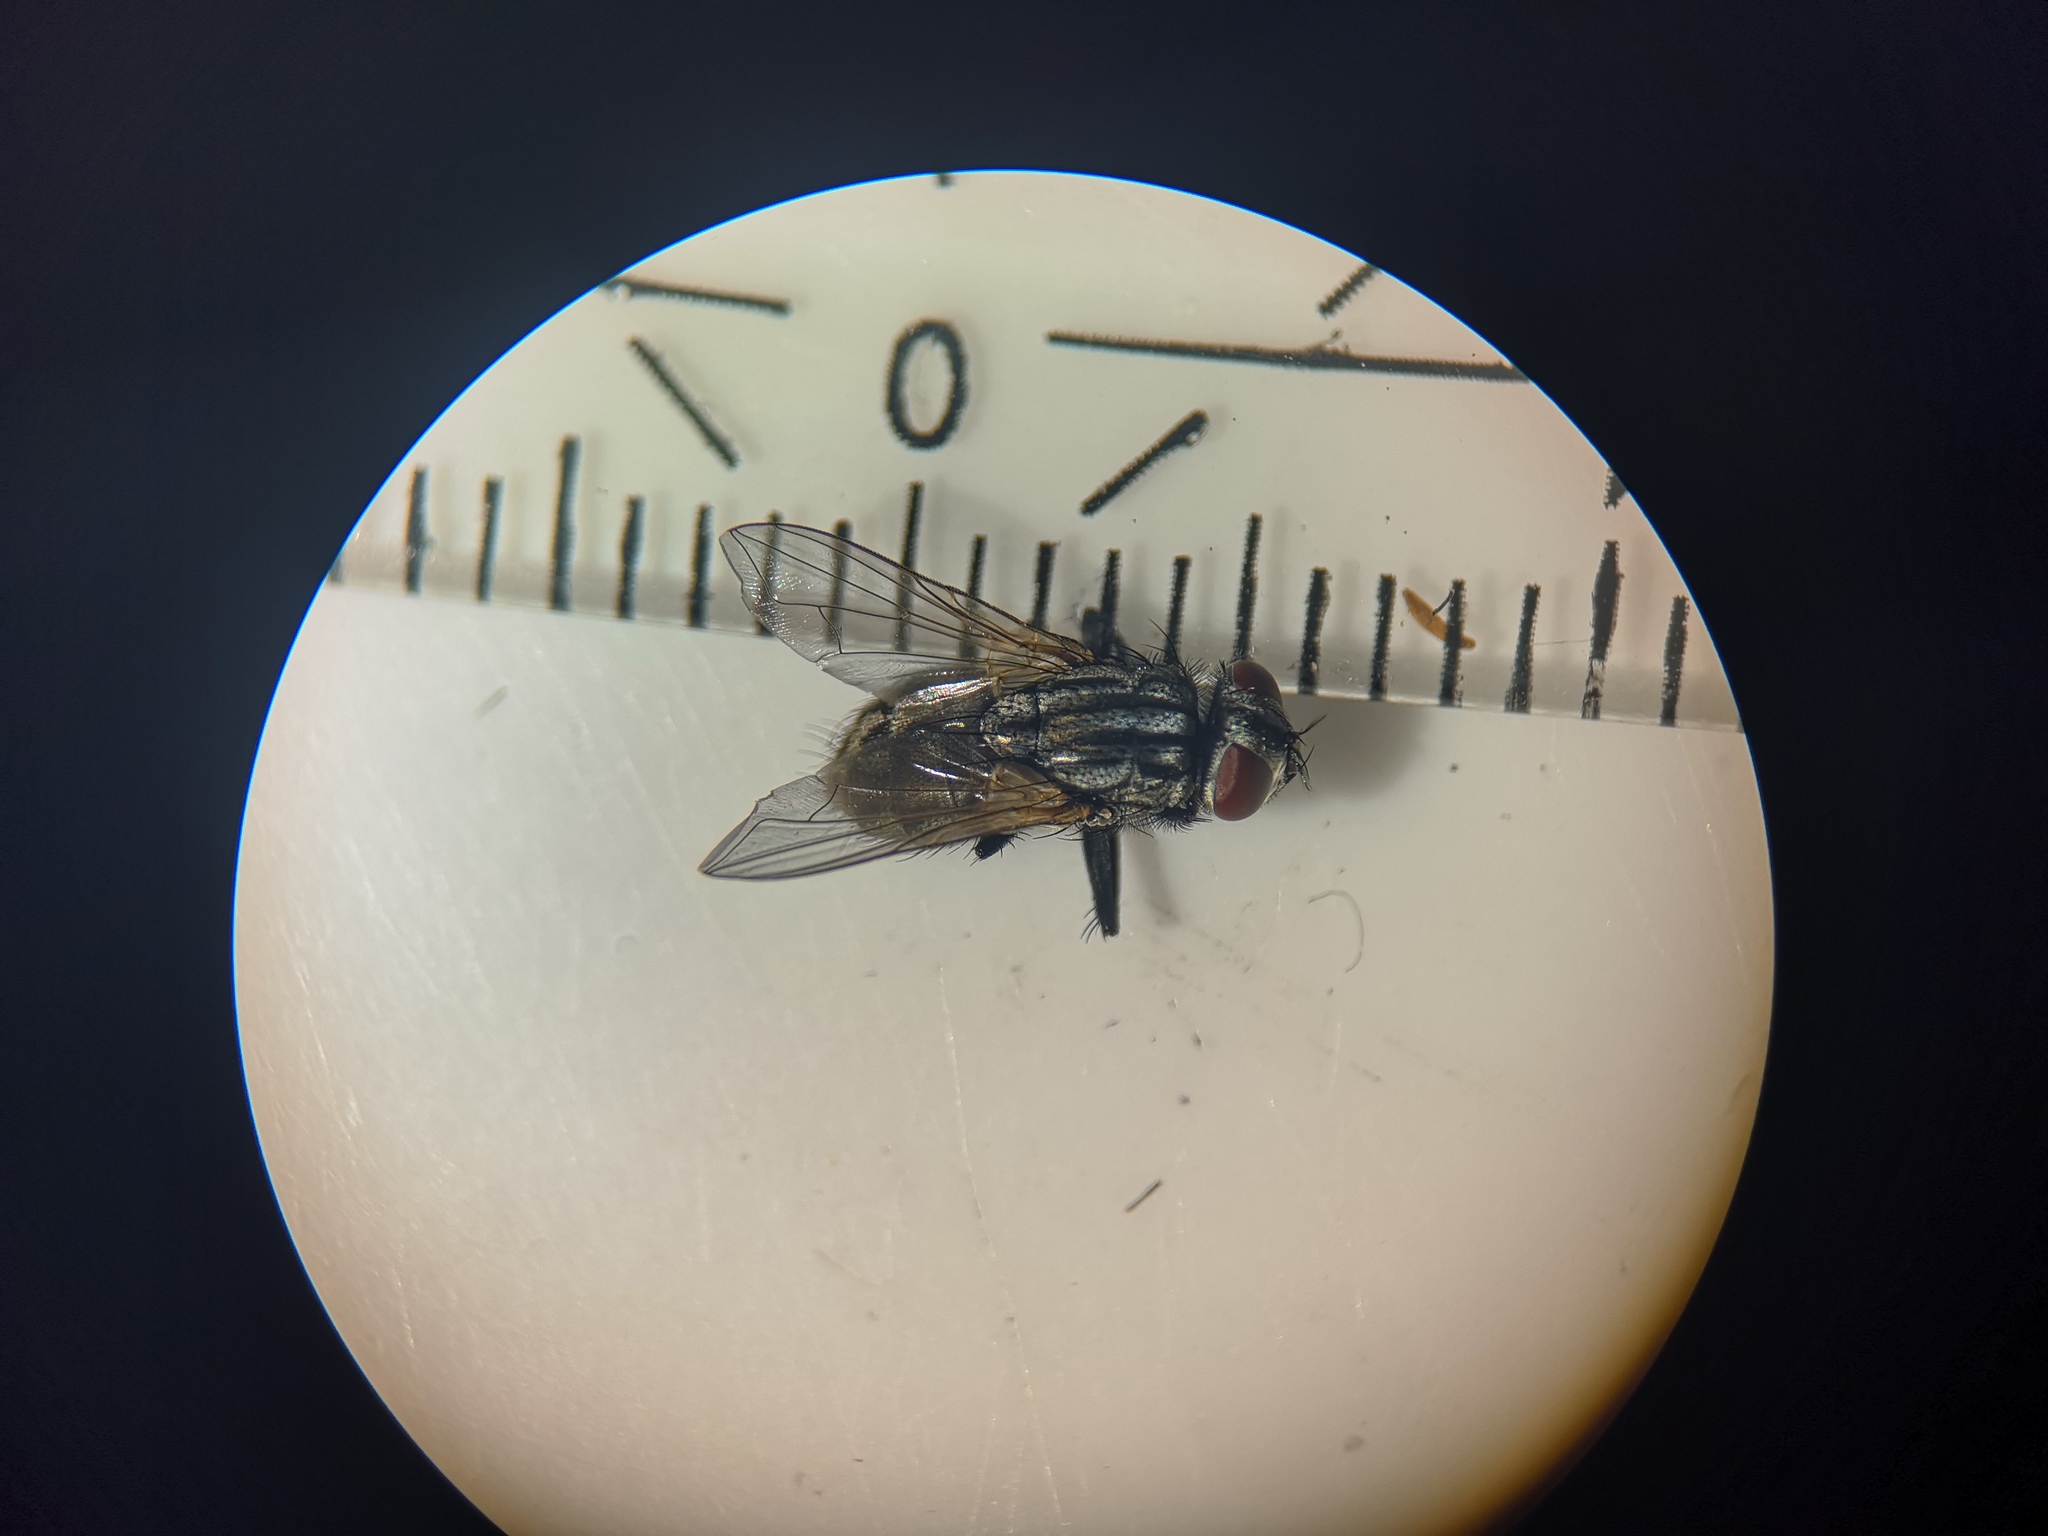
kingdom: Animalia
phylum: Arthropoda
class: Insecta
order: Diptera
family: Muscidae
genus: Musca
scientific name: Musca autumnalis
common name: Face fly
